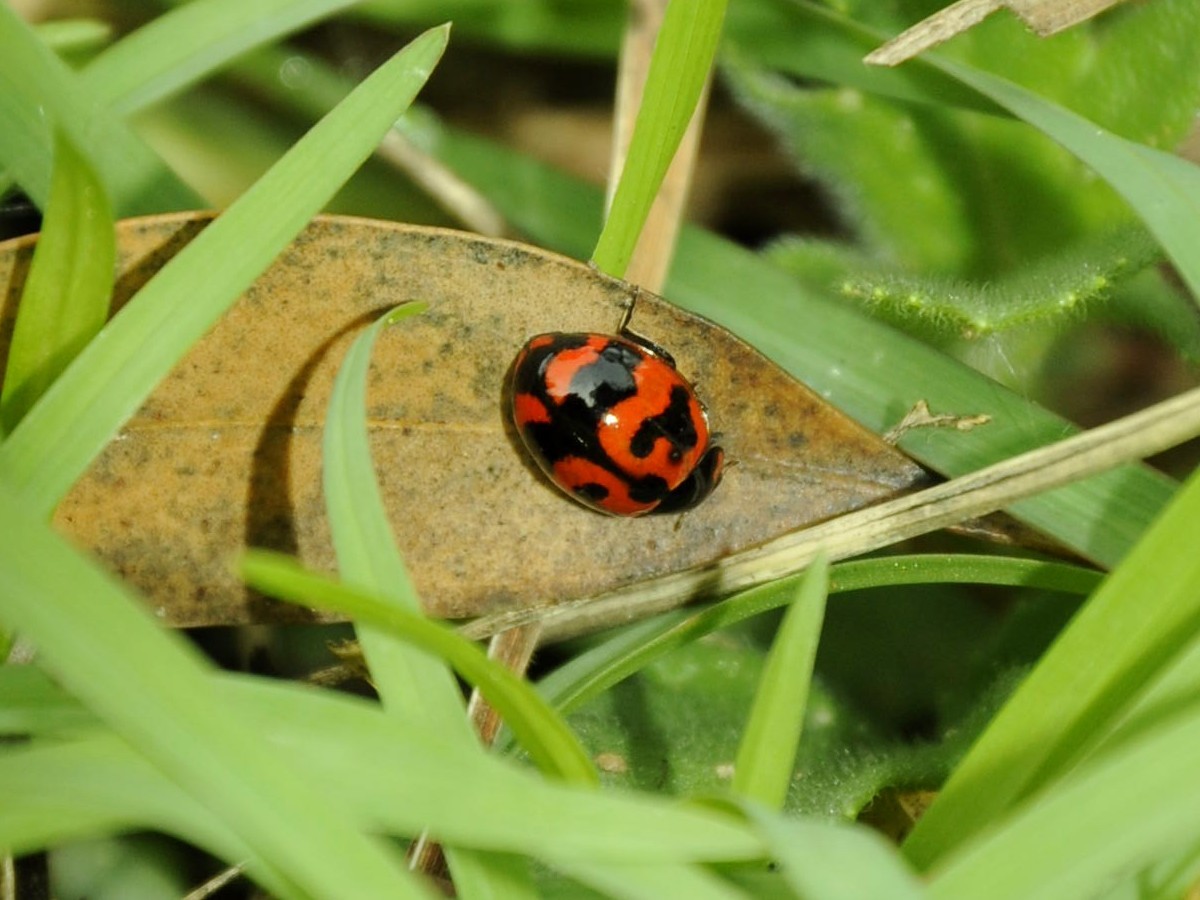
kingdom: Animalia
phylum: Arthropoda
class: Insecta
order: Coleoptera
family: Coccinellidae
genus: Coccinella
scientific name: Coccinella transversalis
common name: Transverse lady beetle
